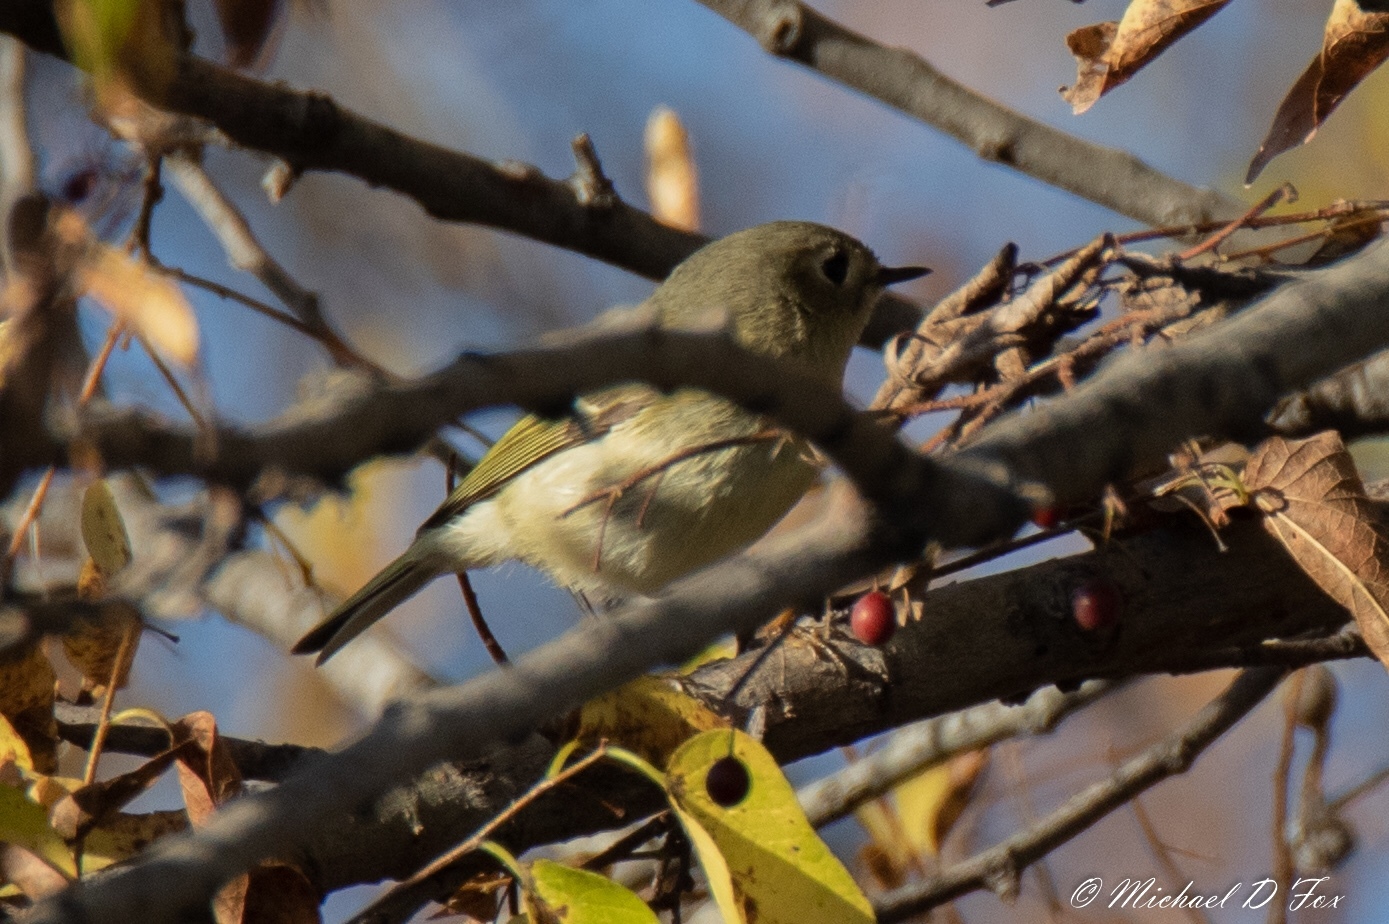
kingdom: Animalia
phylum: Chordata
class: Aves
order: Passeriformes
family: Regulidae
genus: Regulus
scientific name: Regulus calendula
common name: Ruby-crowned kinglet
